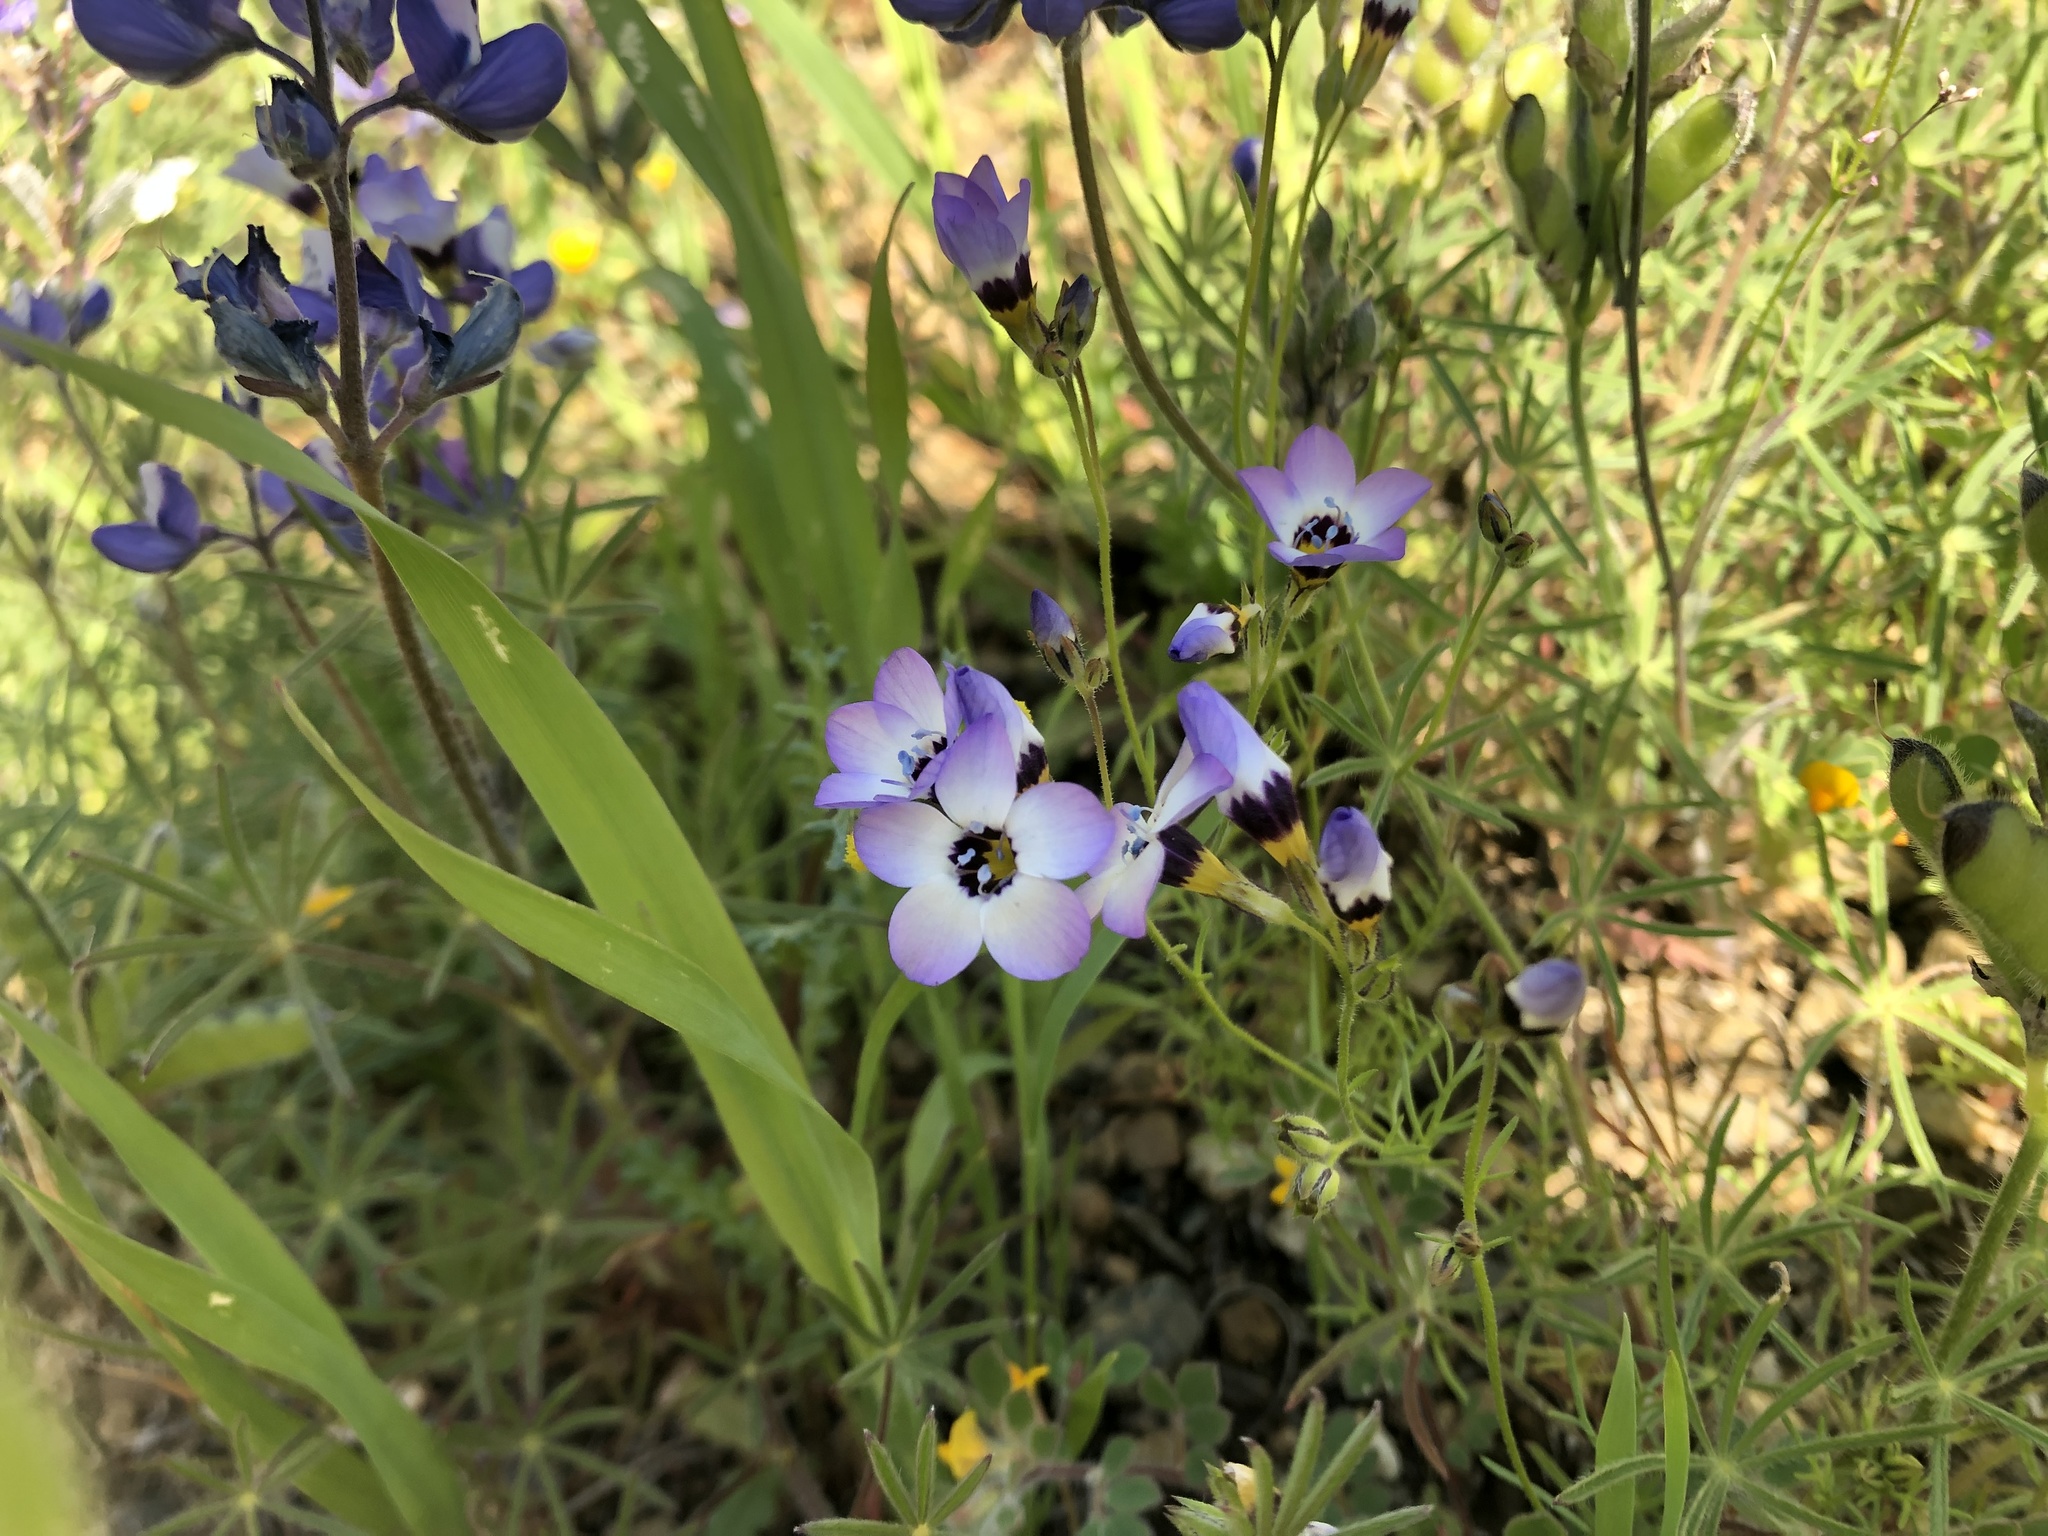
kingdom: Plantae
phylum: Tracheophyta
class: Magnoliopsida
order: Ericales
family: Polemoniaceae
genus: Gilia
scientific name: Gilia tricolor
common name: Bird's-eyes
